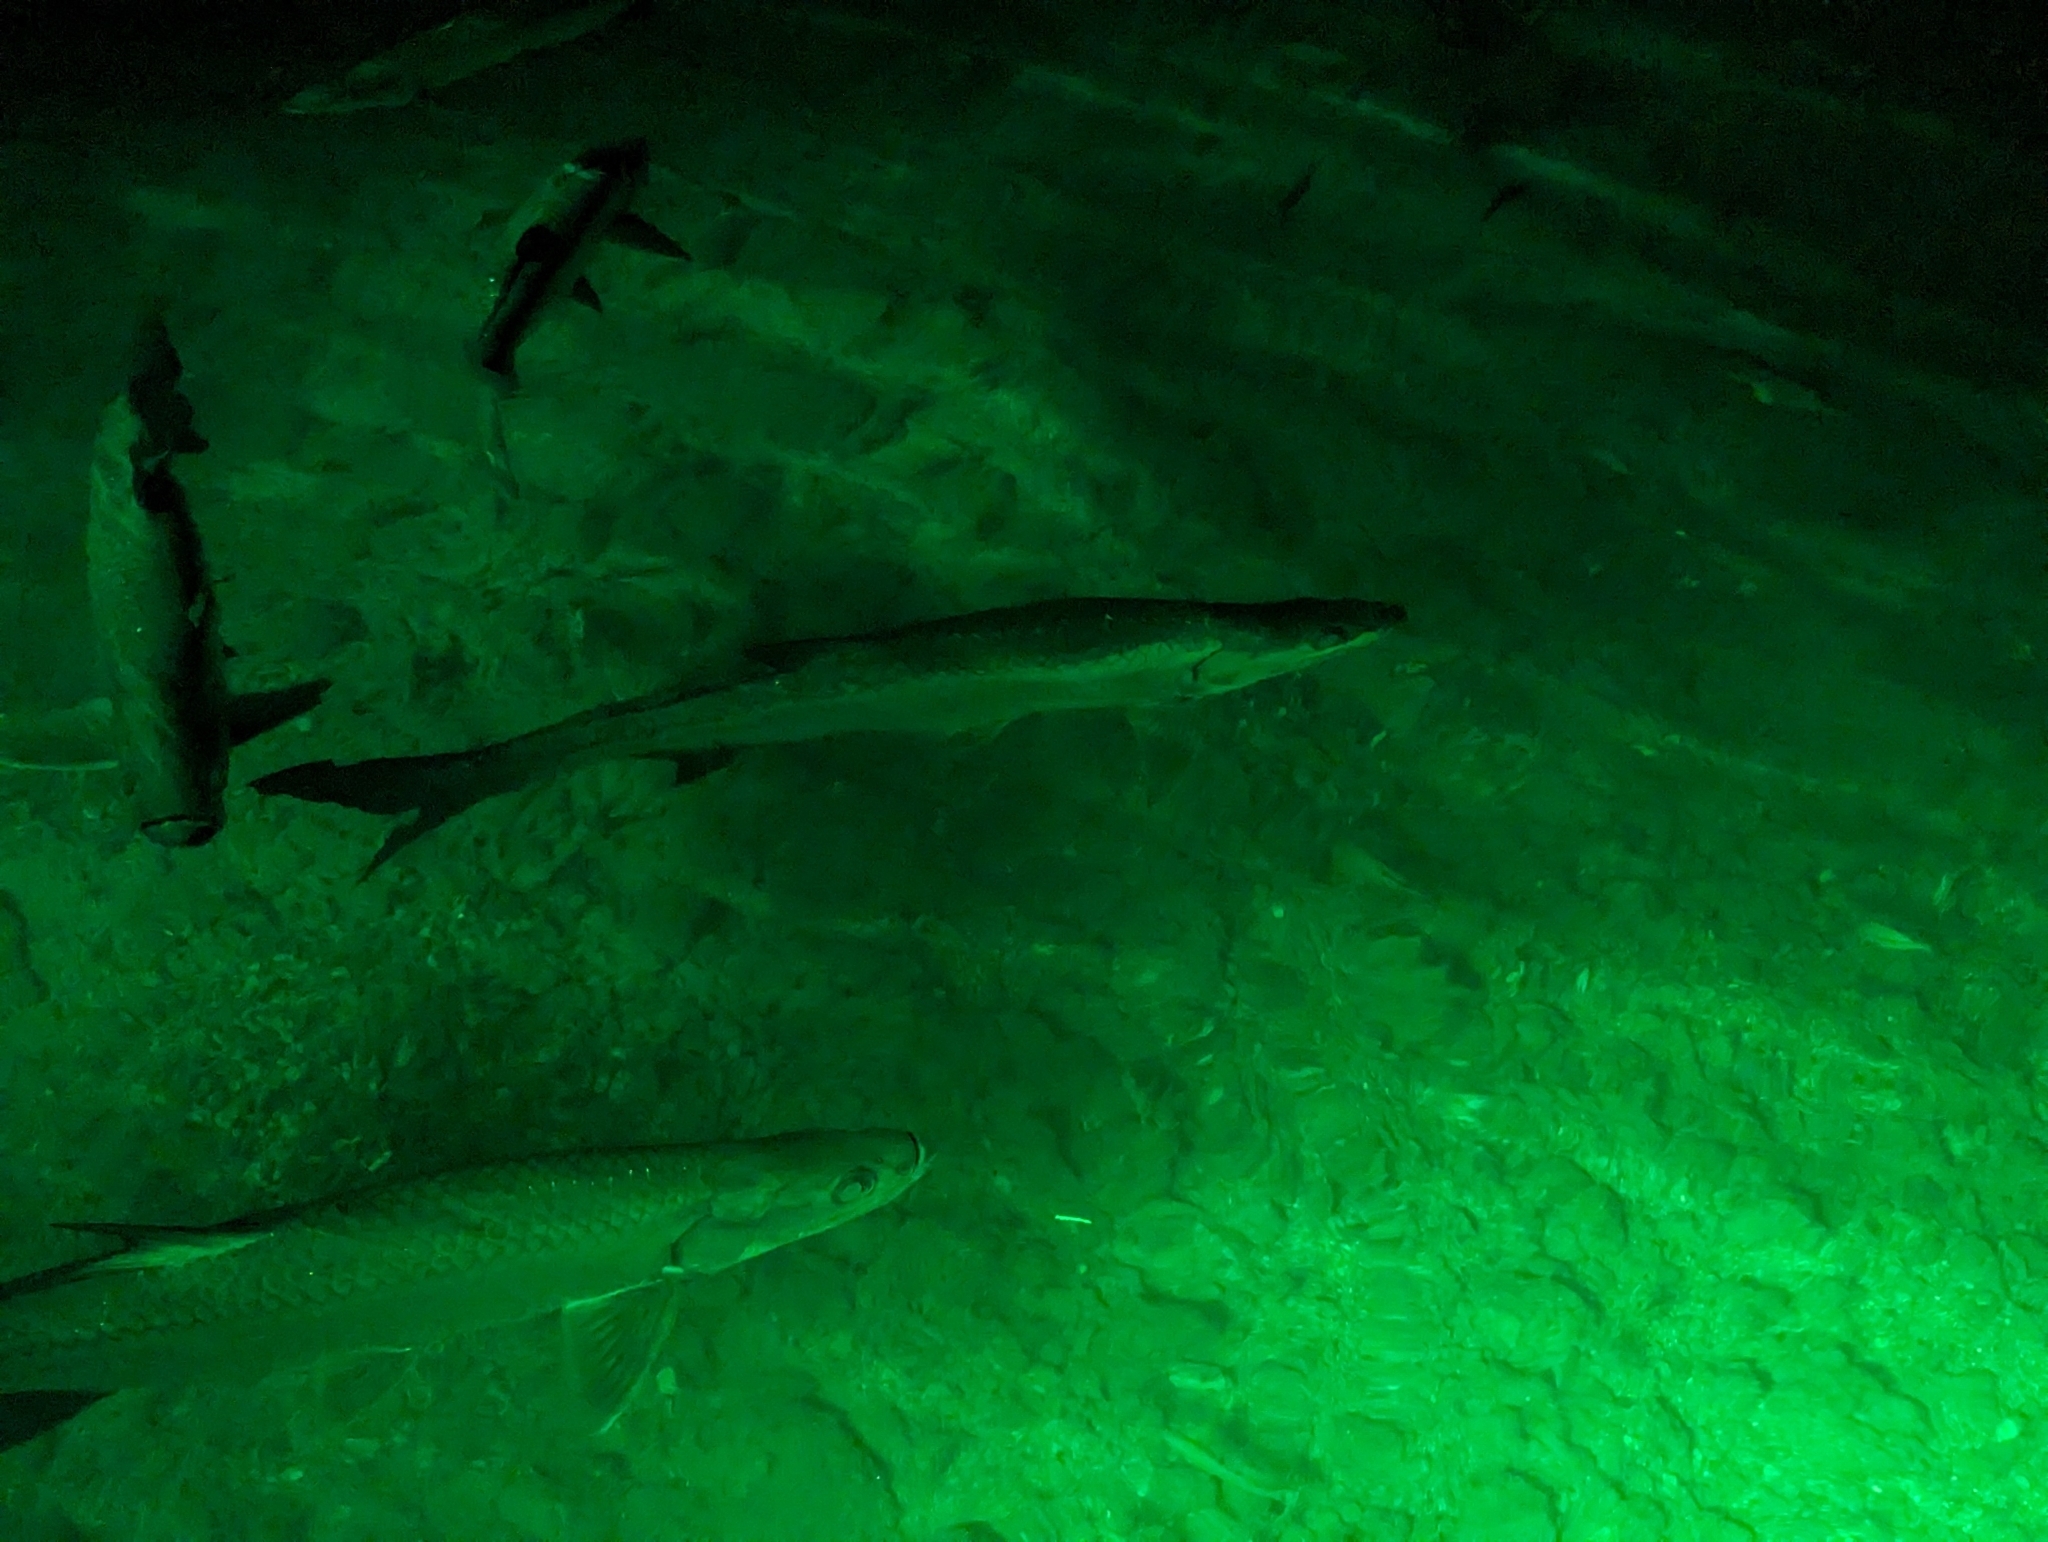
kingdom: Animalia
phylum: Chordata
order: Elopiformes
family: Megalopidae
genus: Megalops
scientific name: Megalops atlanticus
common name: Tarpon
